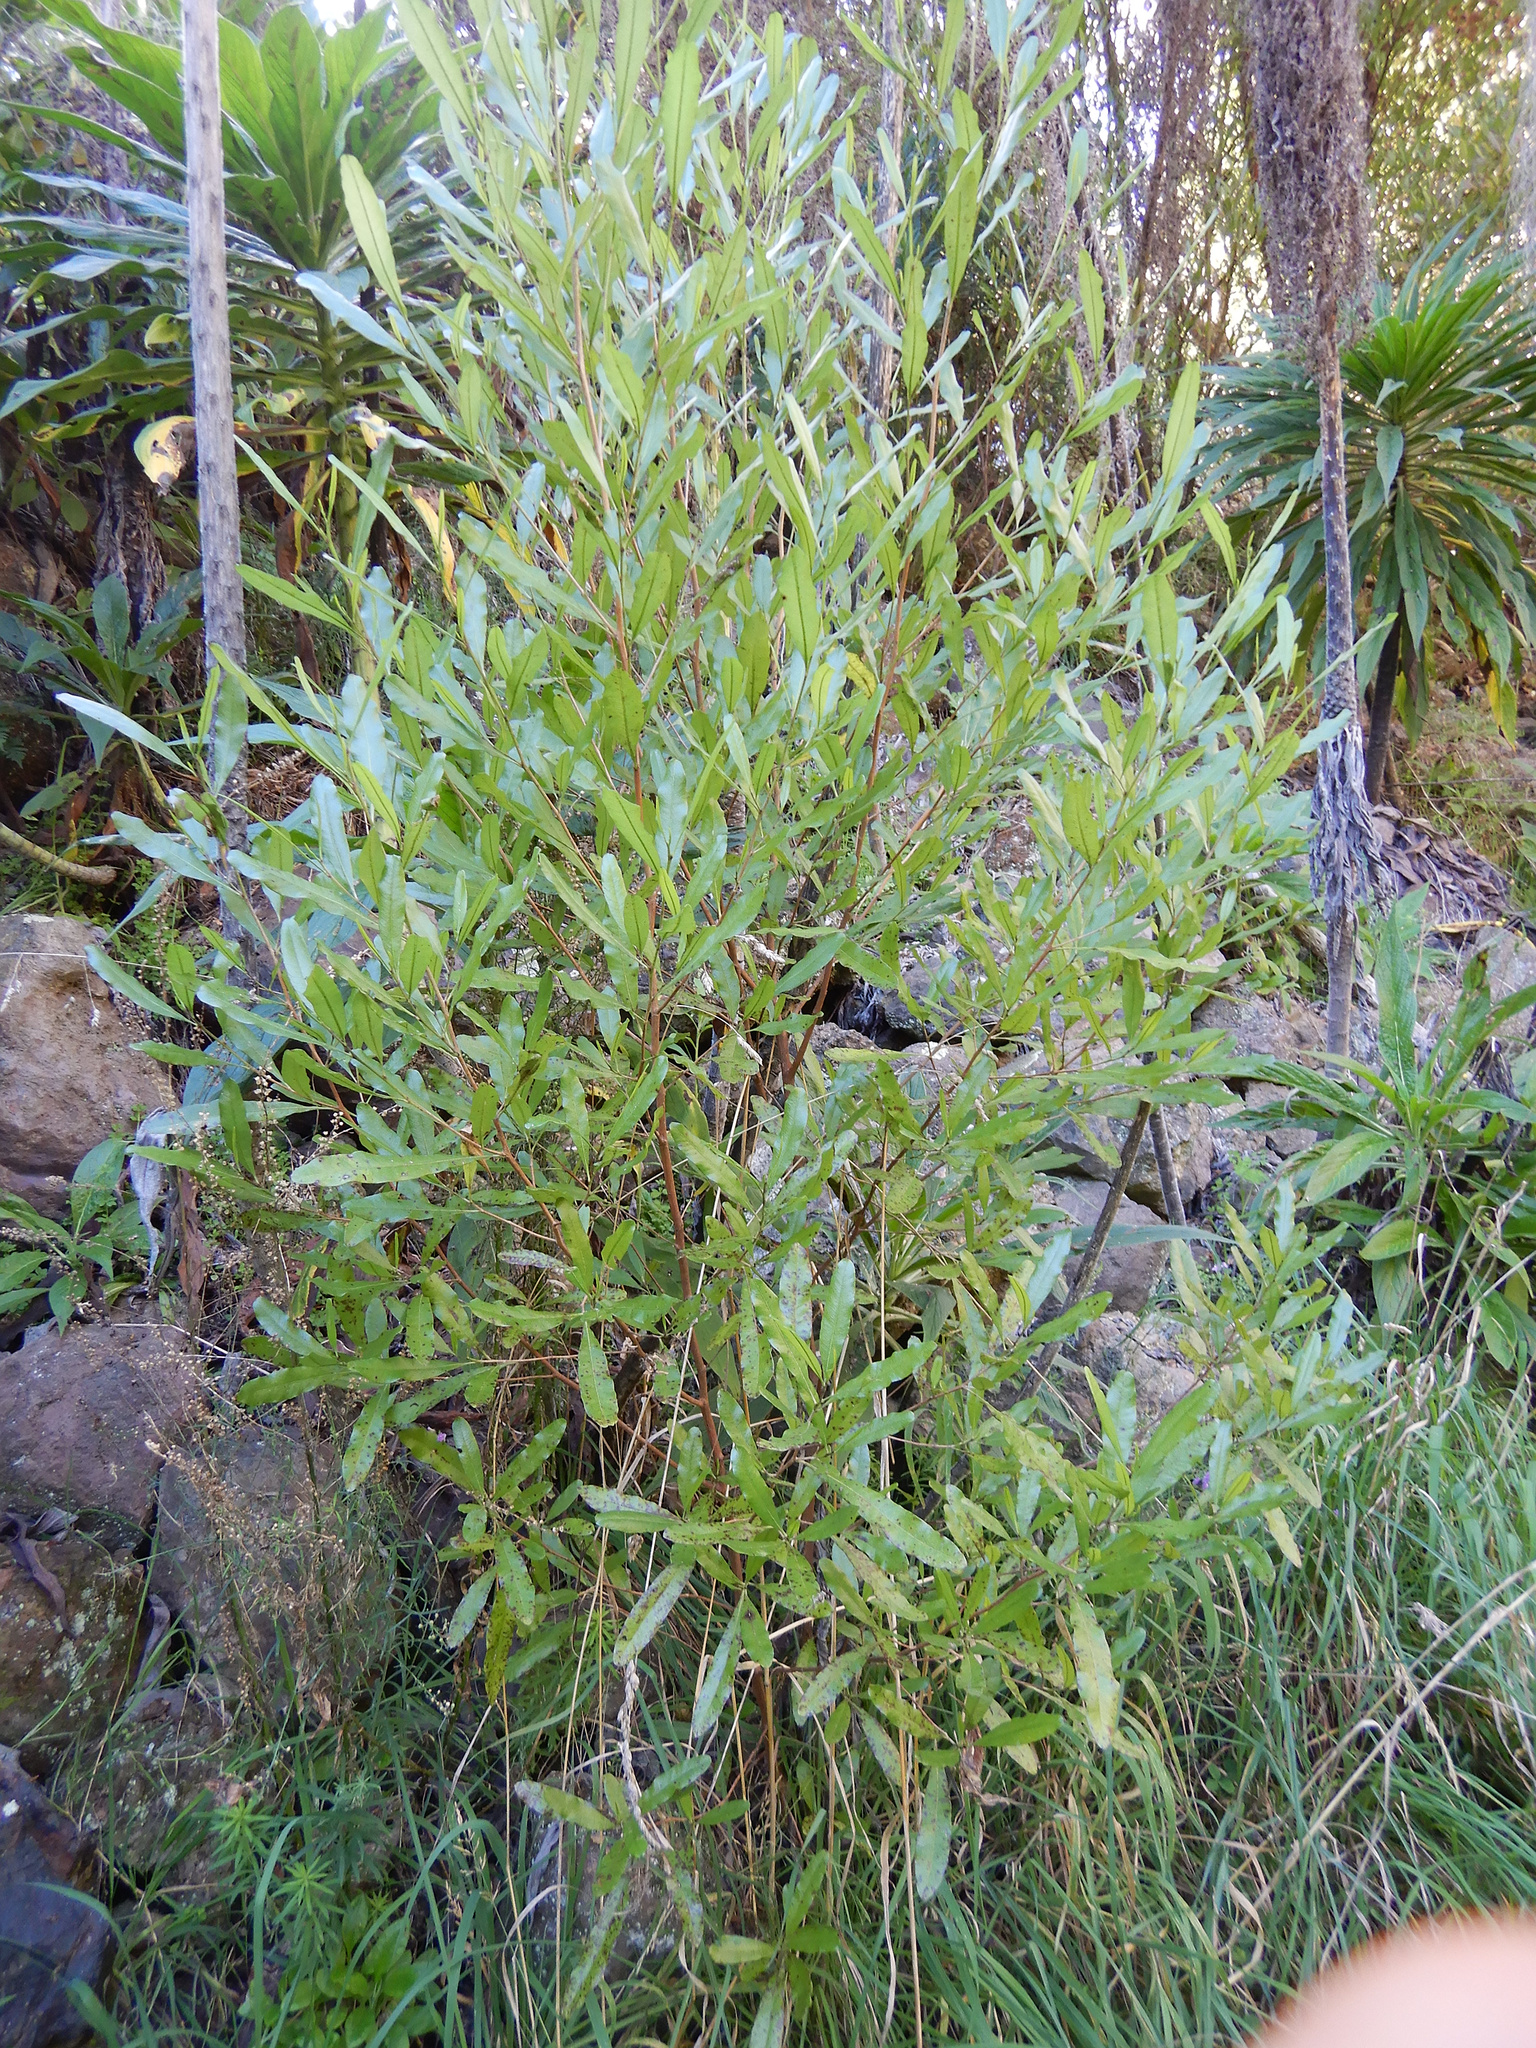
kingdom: Plantae
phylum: Tracheophyta
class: Magnoliopsida
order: Sapindales
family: Sapindaceae
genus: Dodonaea
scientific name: Dodonaea viscosa
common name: Hopbush
